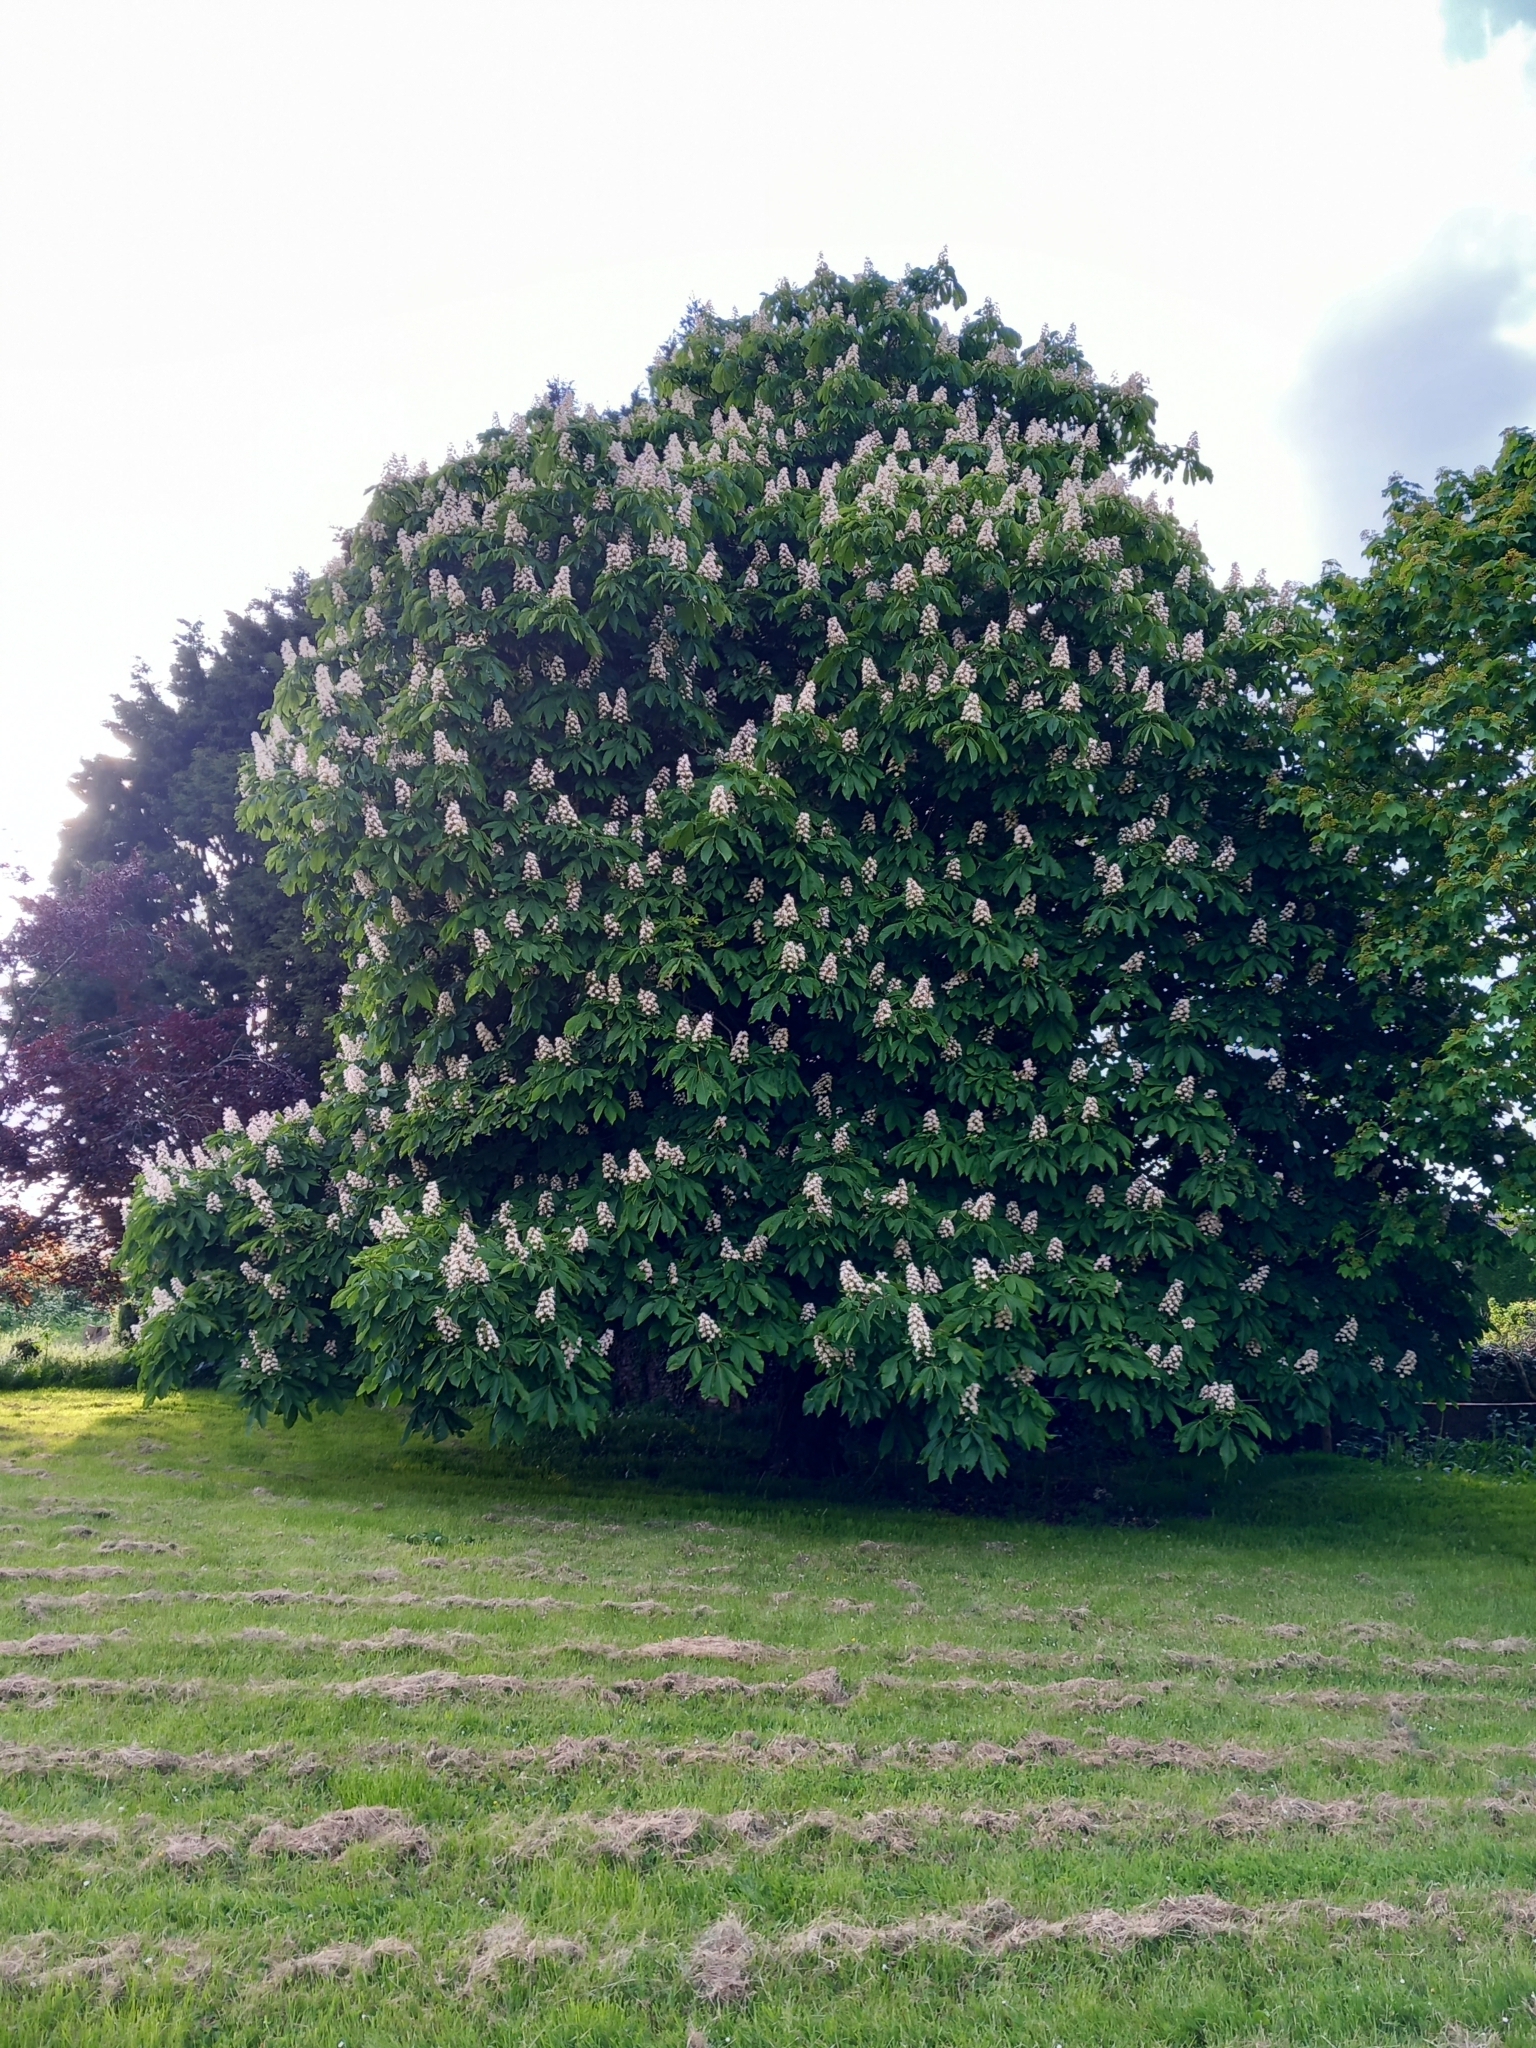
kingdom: Plantae
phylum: Tracheophyta
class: Magnoliopsida
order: Sapindales
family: Sapindaceae
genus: Aesculus
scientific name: Aesculus hippocastanum
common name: Horse-chestnut
